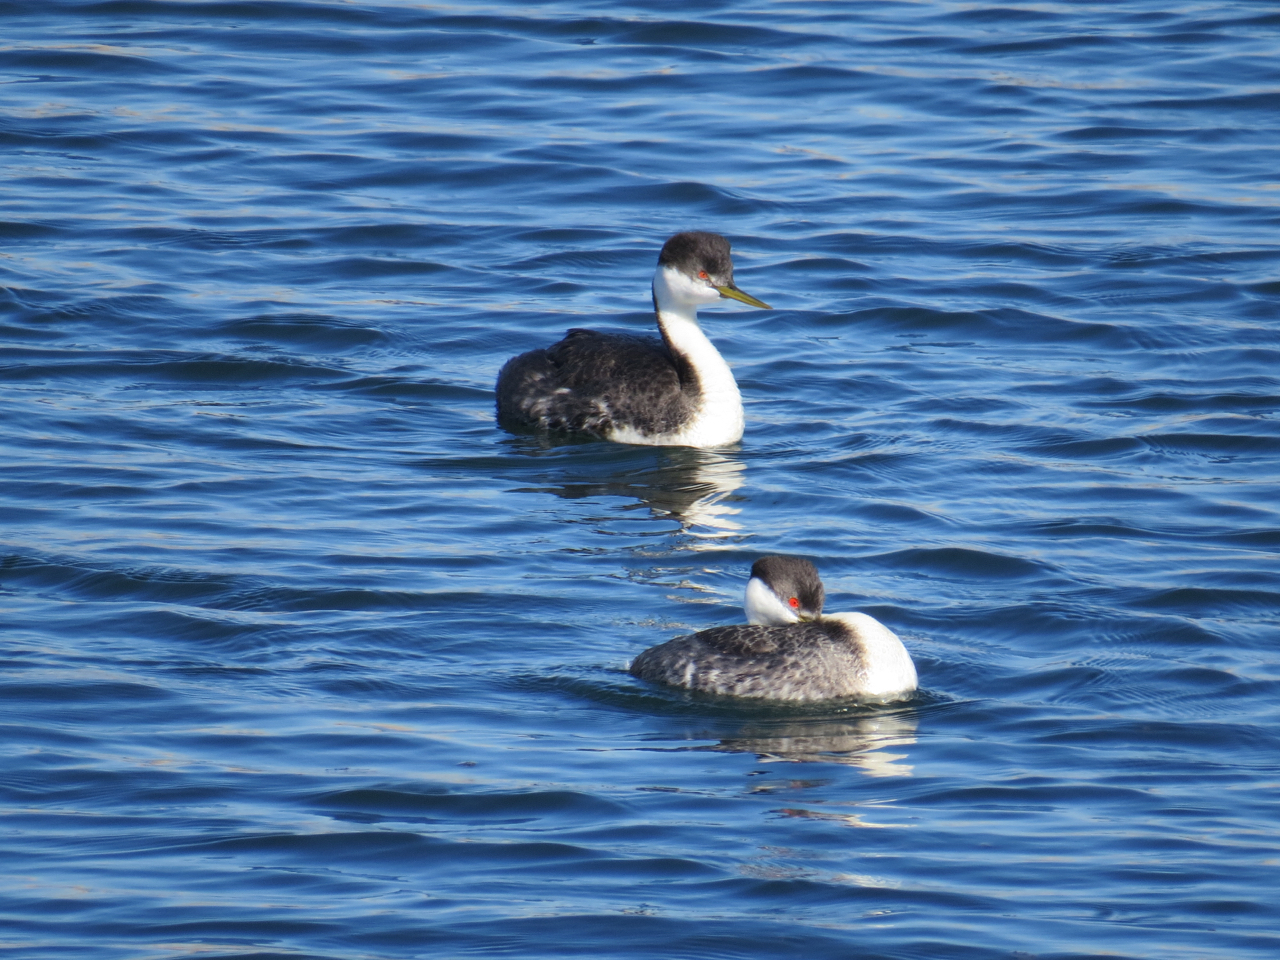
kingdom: Animalia
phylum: Chordata
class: Aves
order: Podicipediformes
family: Podicipedidae
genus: Aechmophorus
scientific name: Aechmophorus occidentalis
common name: Western grebe
